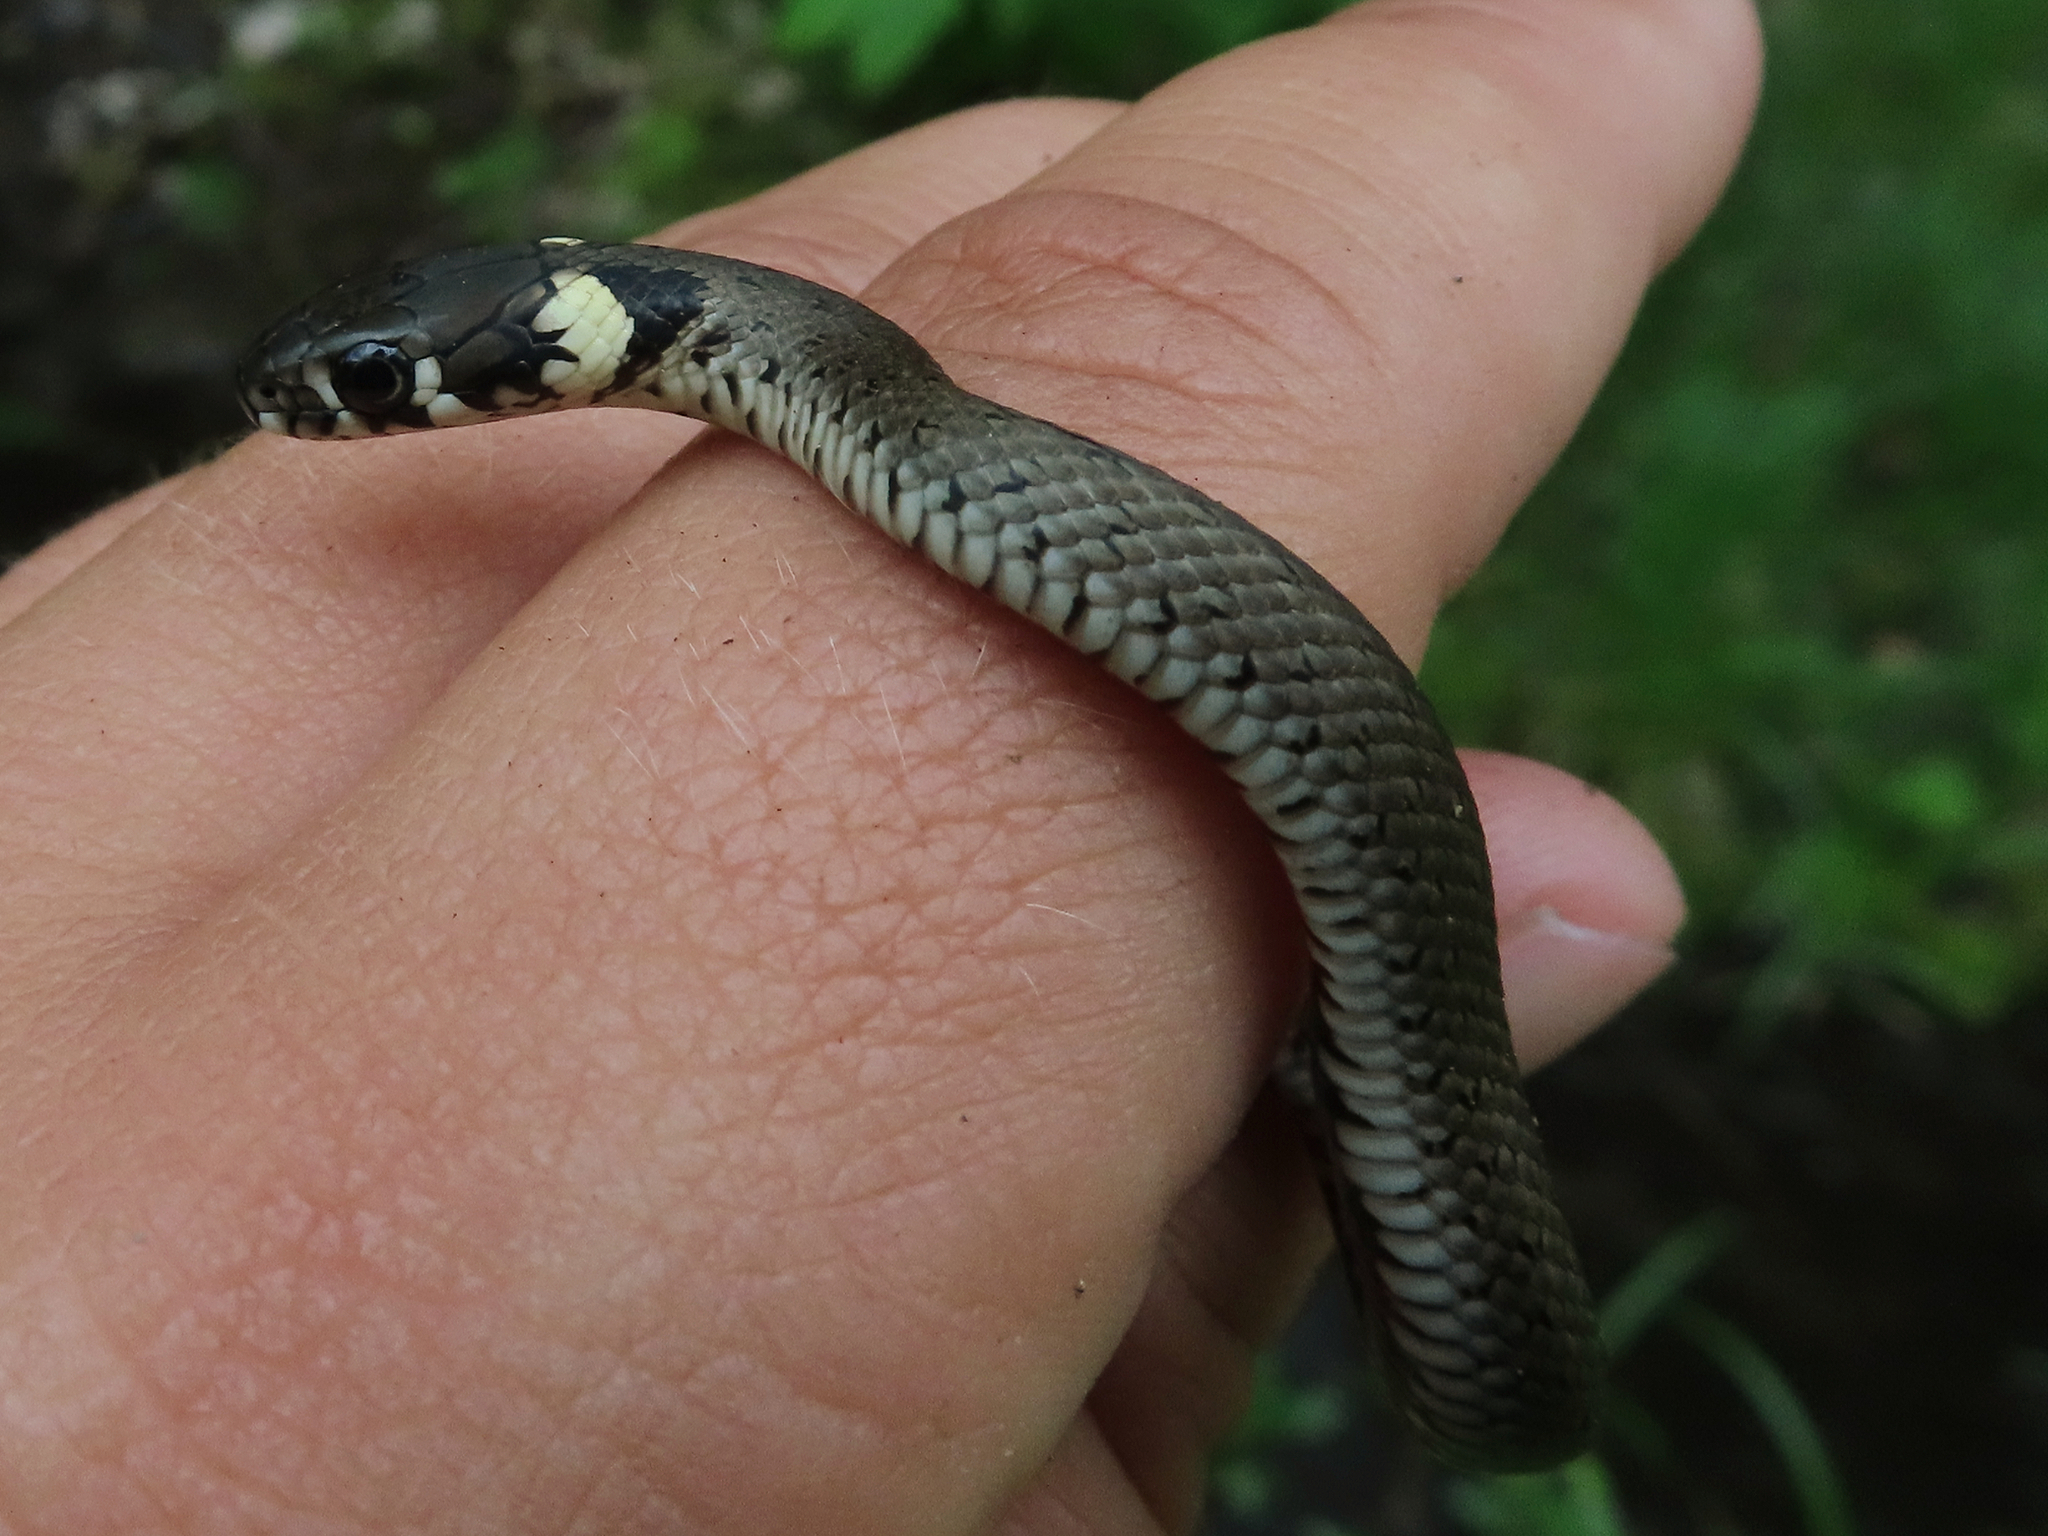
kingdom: Animalia
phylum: Chordata
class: Squamata
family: Colubridae
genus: Natrix
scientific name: Natrix natrix
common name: Grass snake
